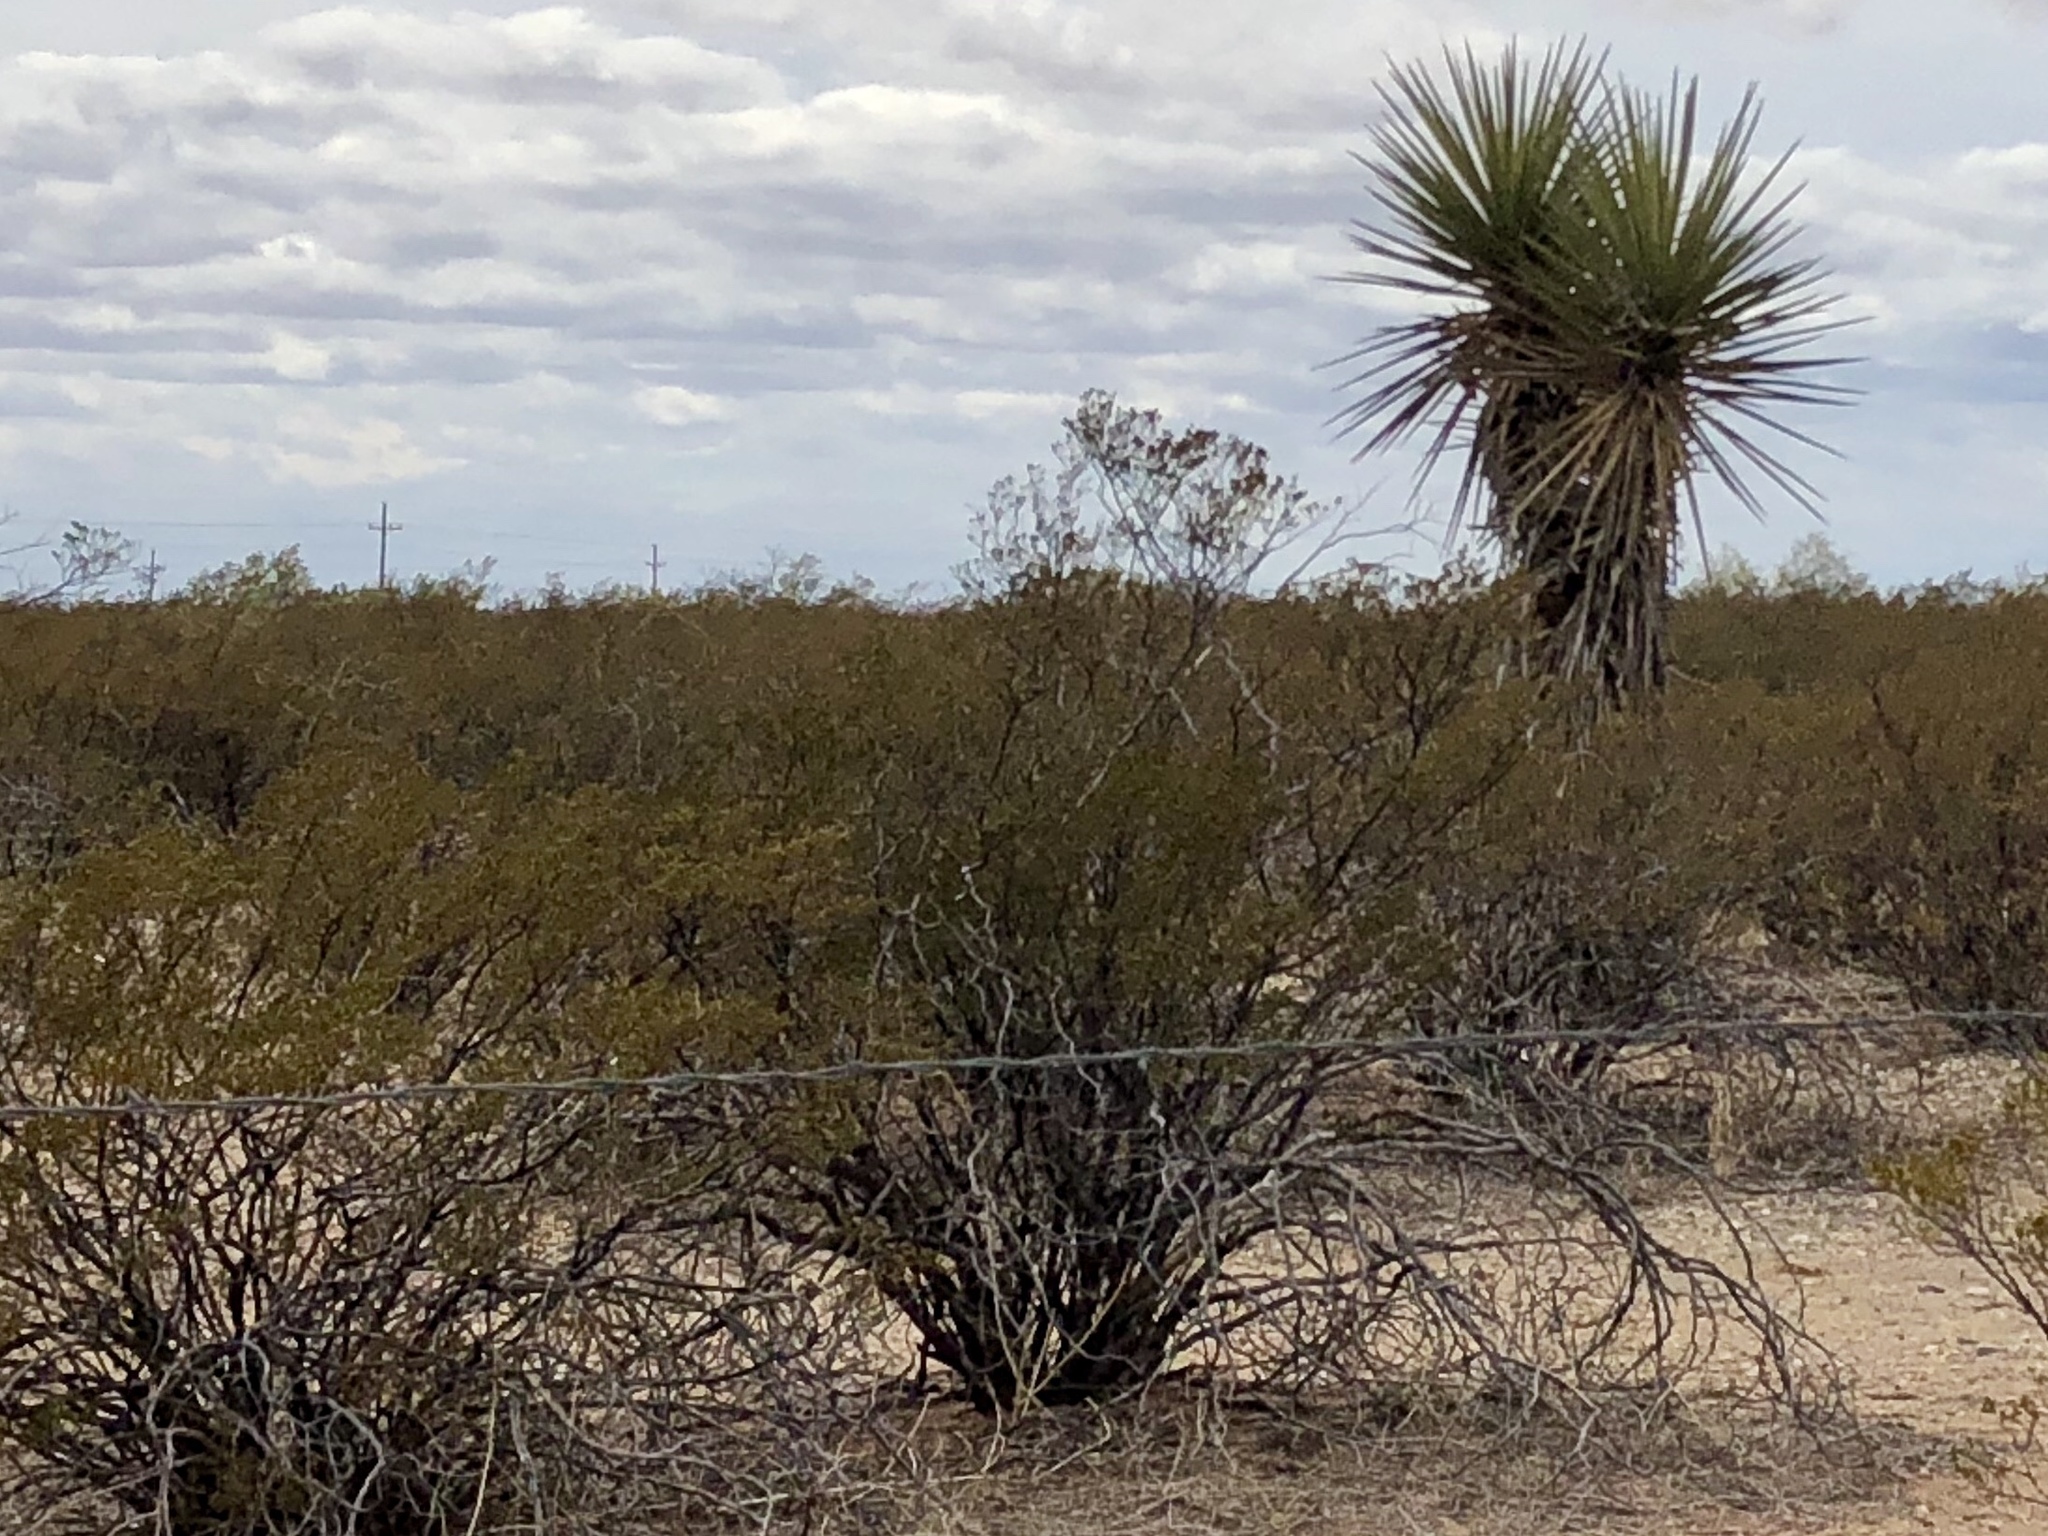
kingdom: Plantae
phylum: Tracheophyta
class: Magnoliopsida
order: Zygophyllales
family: Zygophyllaceae
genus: Larrea
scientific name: Larrea tridentata
